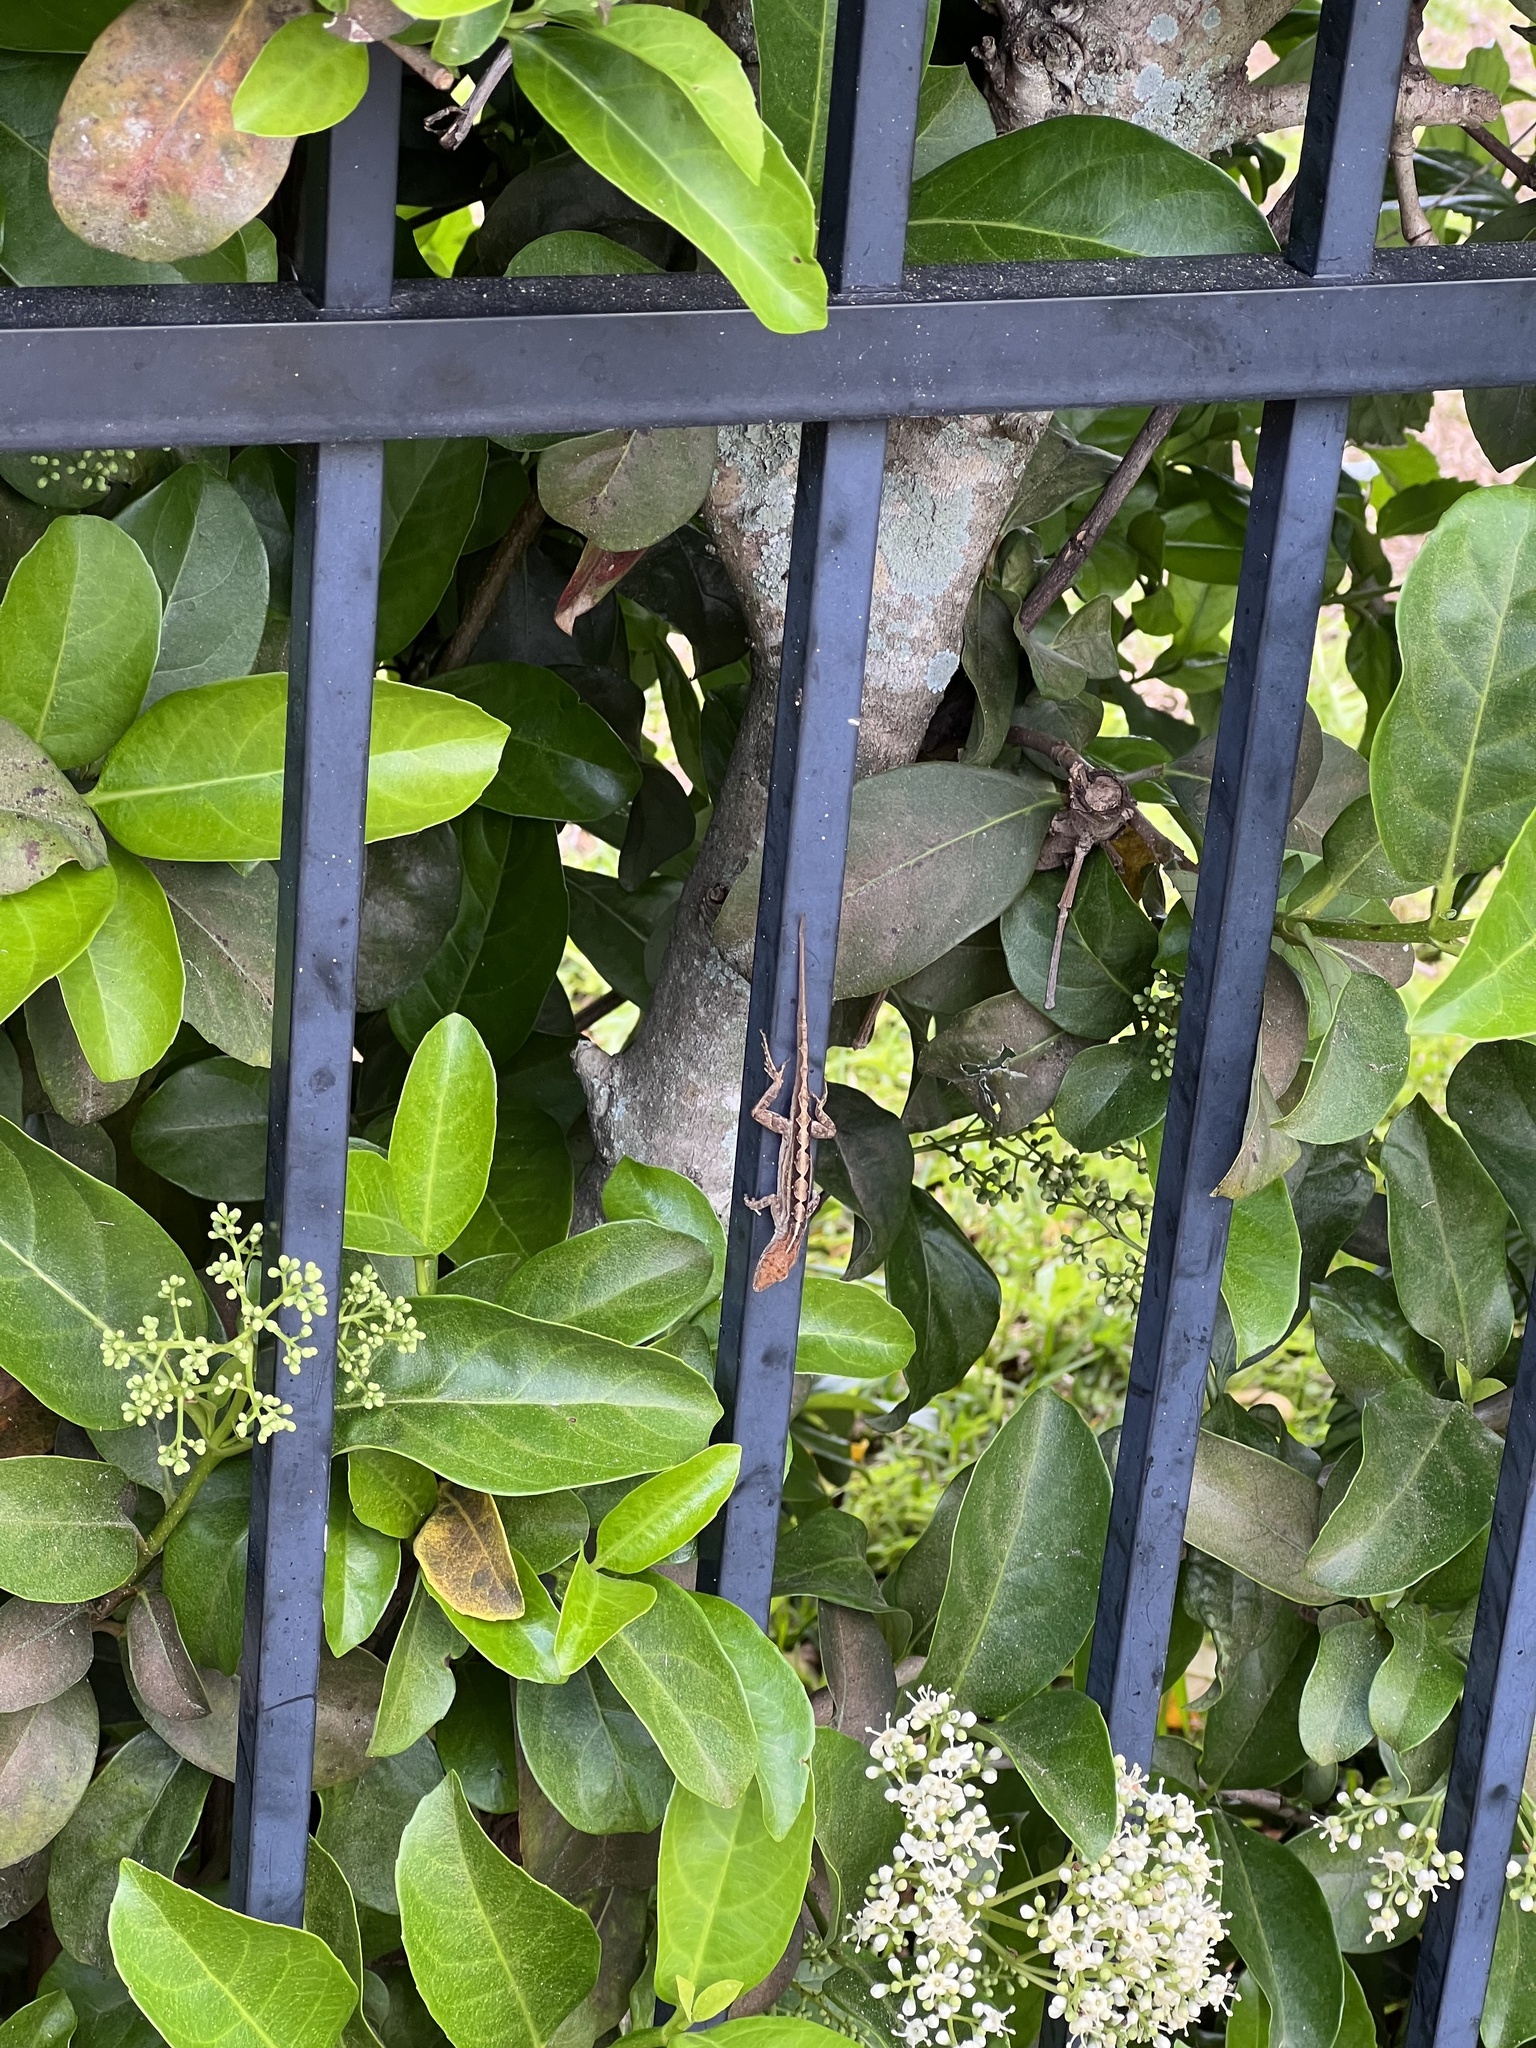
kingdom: Animalia
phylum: Chordata
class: Squamata
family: Dactyloidae
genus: Anolis
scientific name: Anolis sagrei
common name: Brown anole
